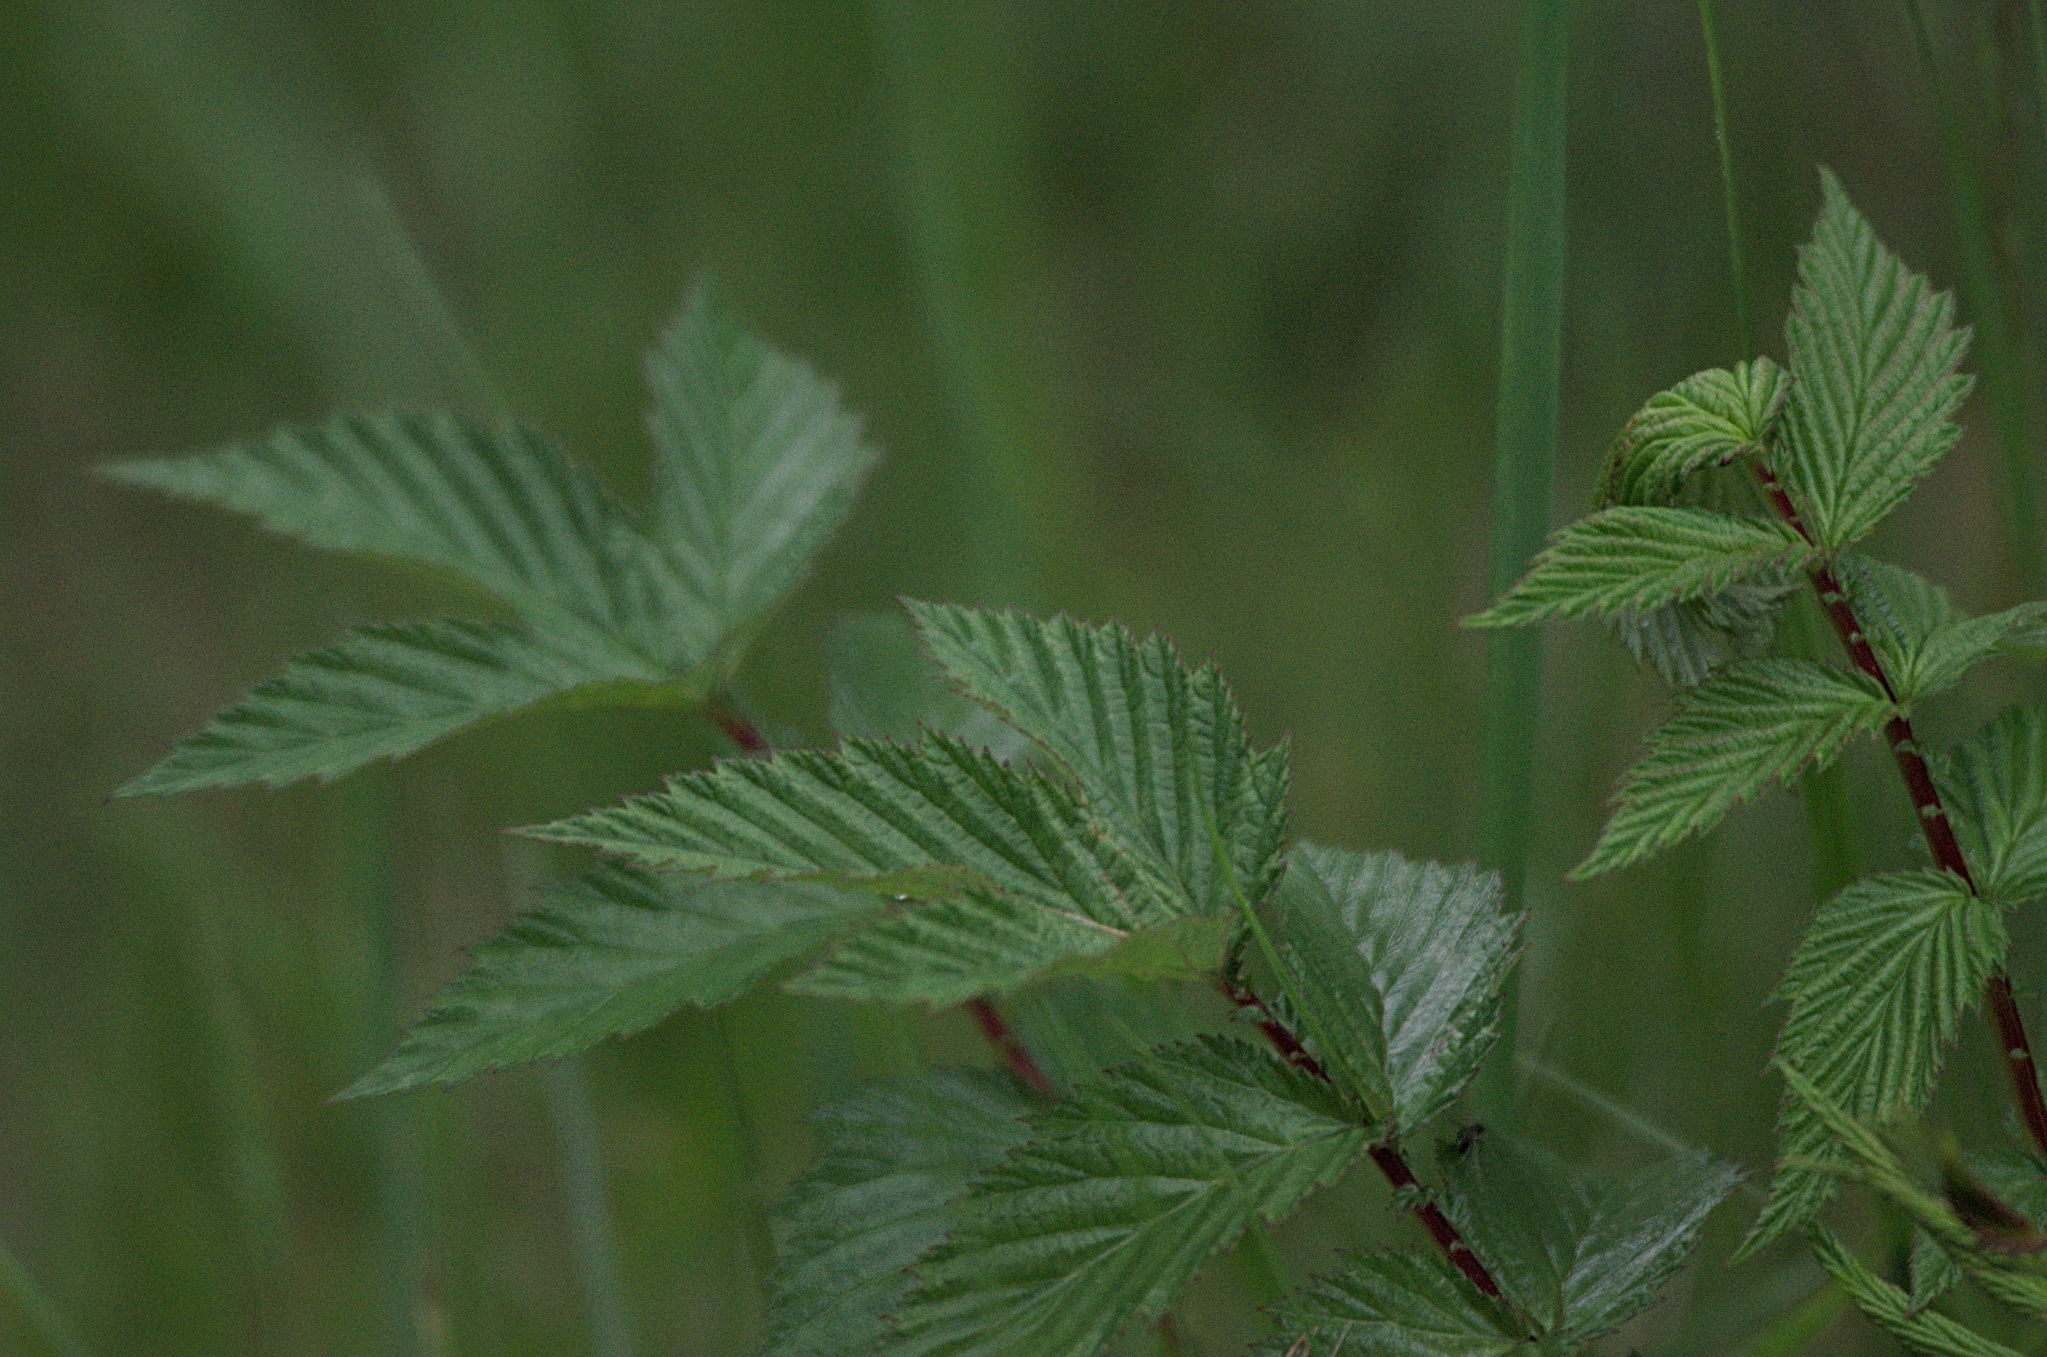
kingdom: Plantae
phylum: Tracheophyta
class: Magnoliopsida
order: Rosales
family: Rosaceae
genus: Filipendula
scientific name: Filipendula ulmaria
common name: Meadowsweet
